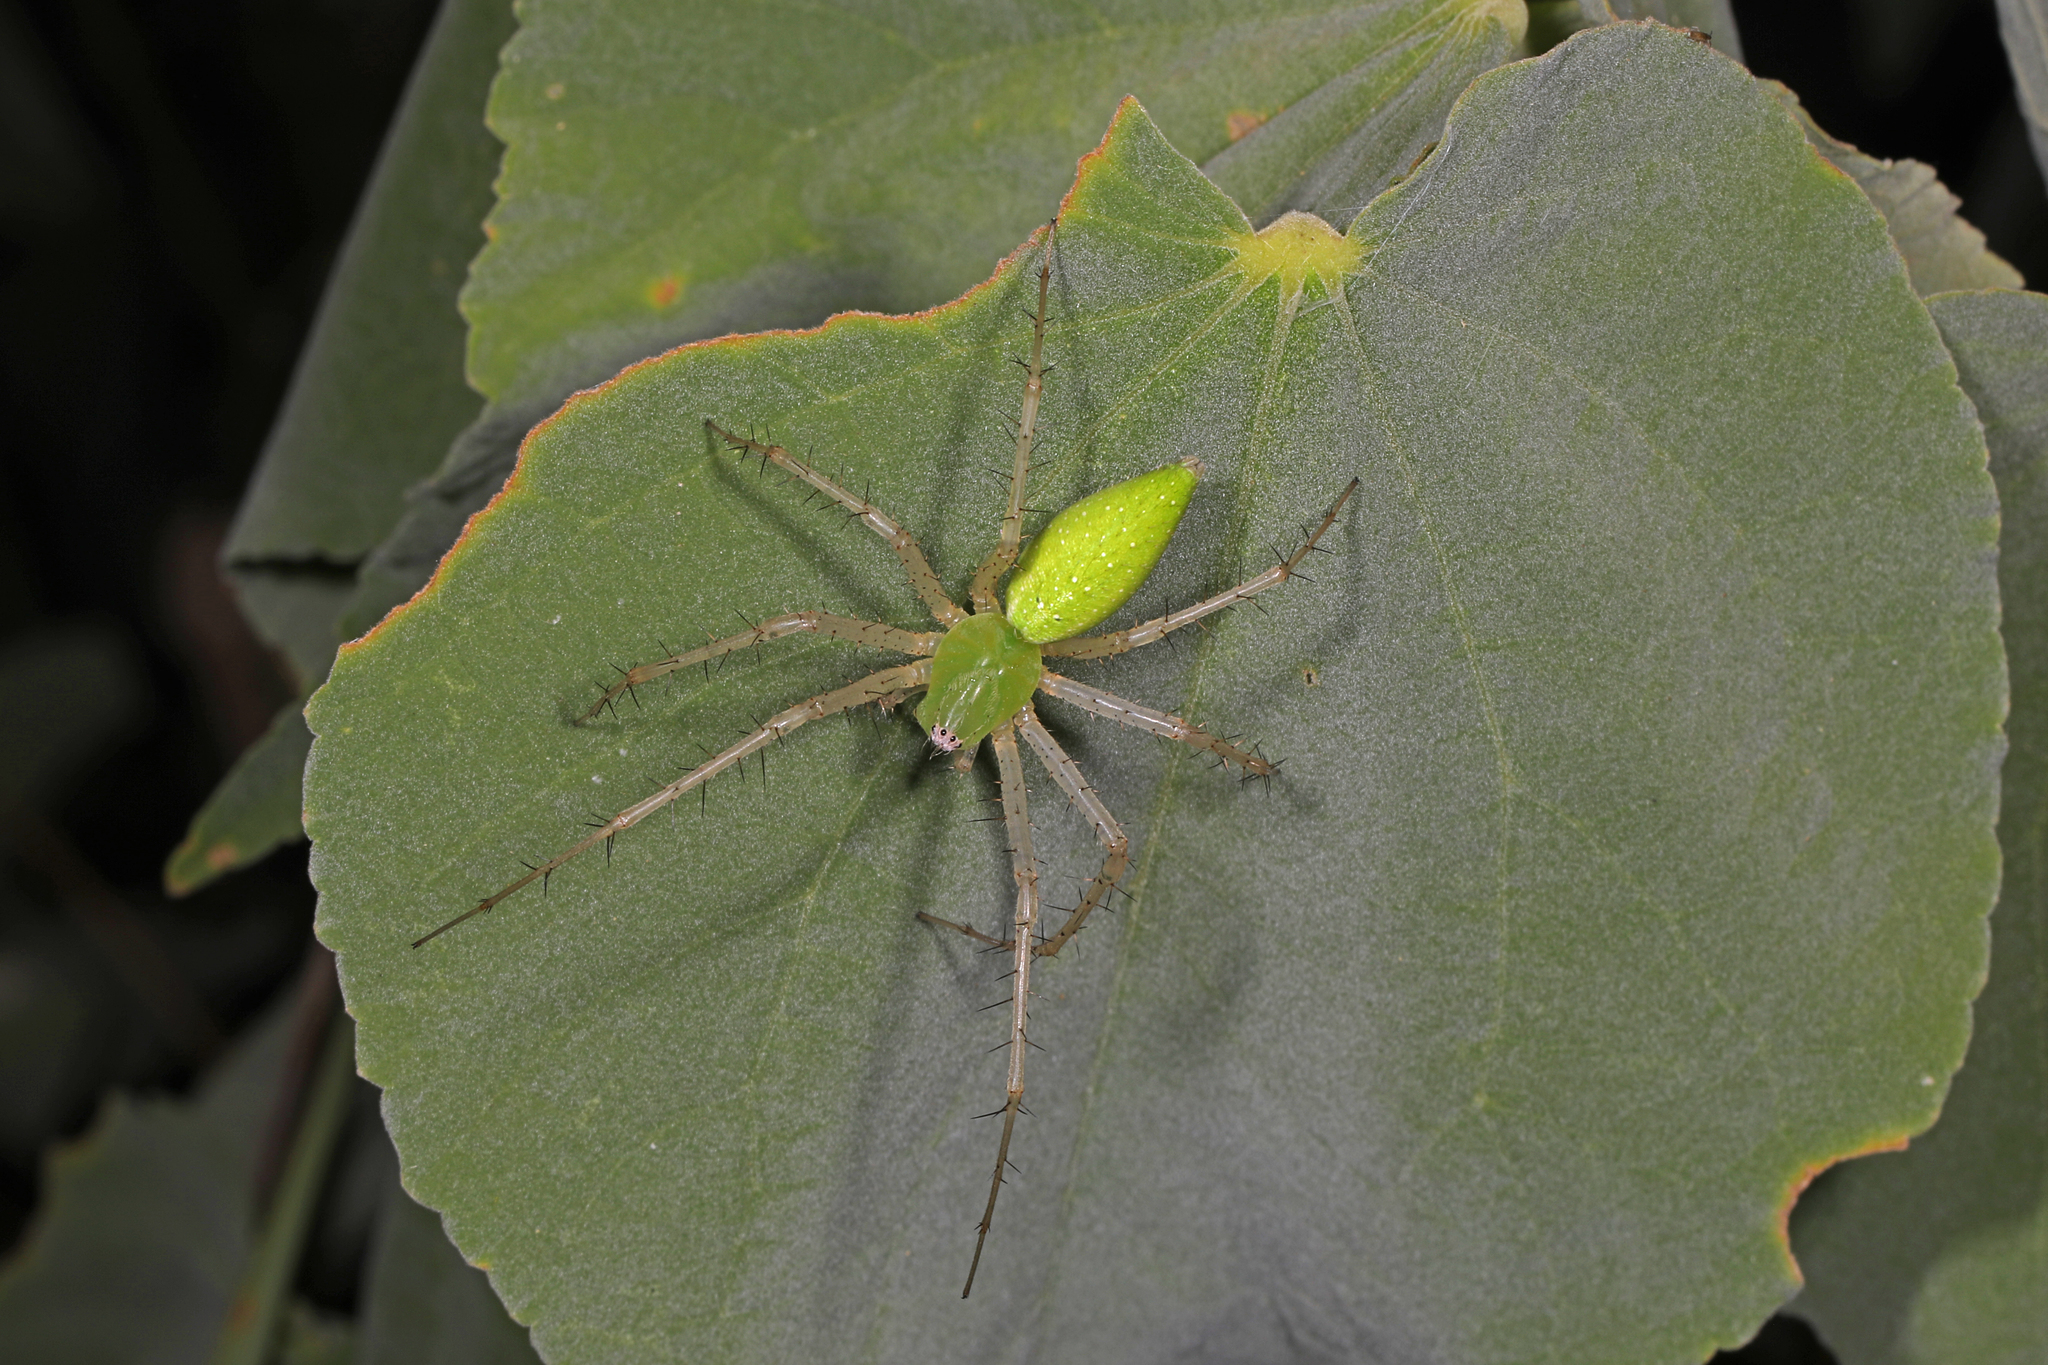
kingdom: Animalia
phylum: Arthropoda
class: Arachnida
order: Araneae
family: Oxyopidae
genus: Peucetia
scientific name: Peucetia longipalpis
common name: Lynx spiders
